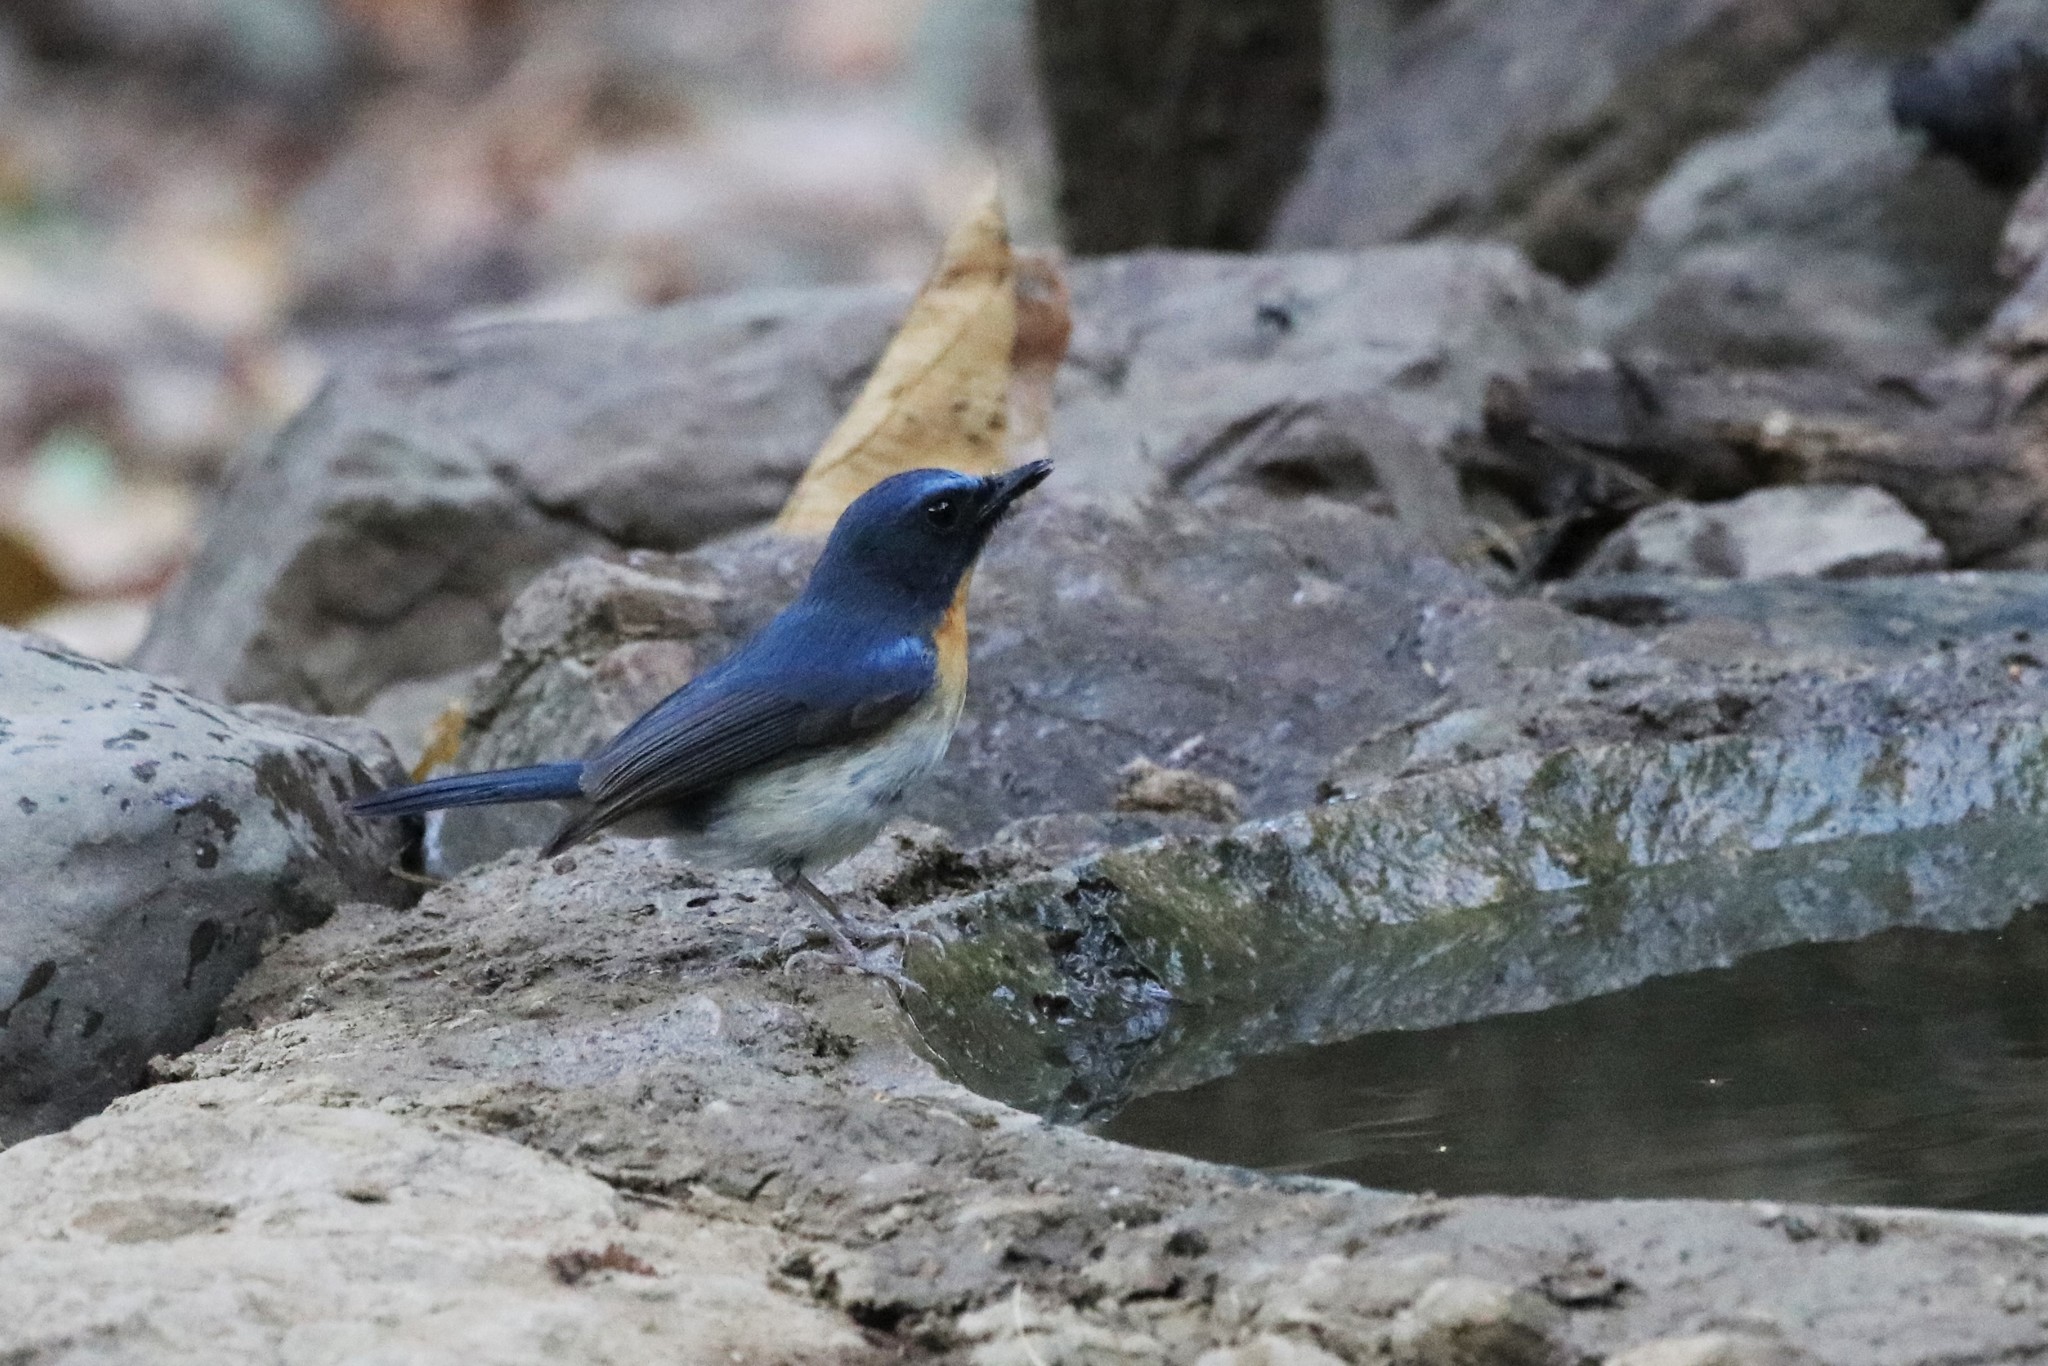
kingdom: Animalia
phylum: Chordata
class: Aves
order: Passeriformes
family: Muscicapidae
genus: Cyornis
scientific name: Cyornis tickelliae
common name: Tickell's blue flycatcher
